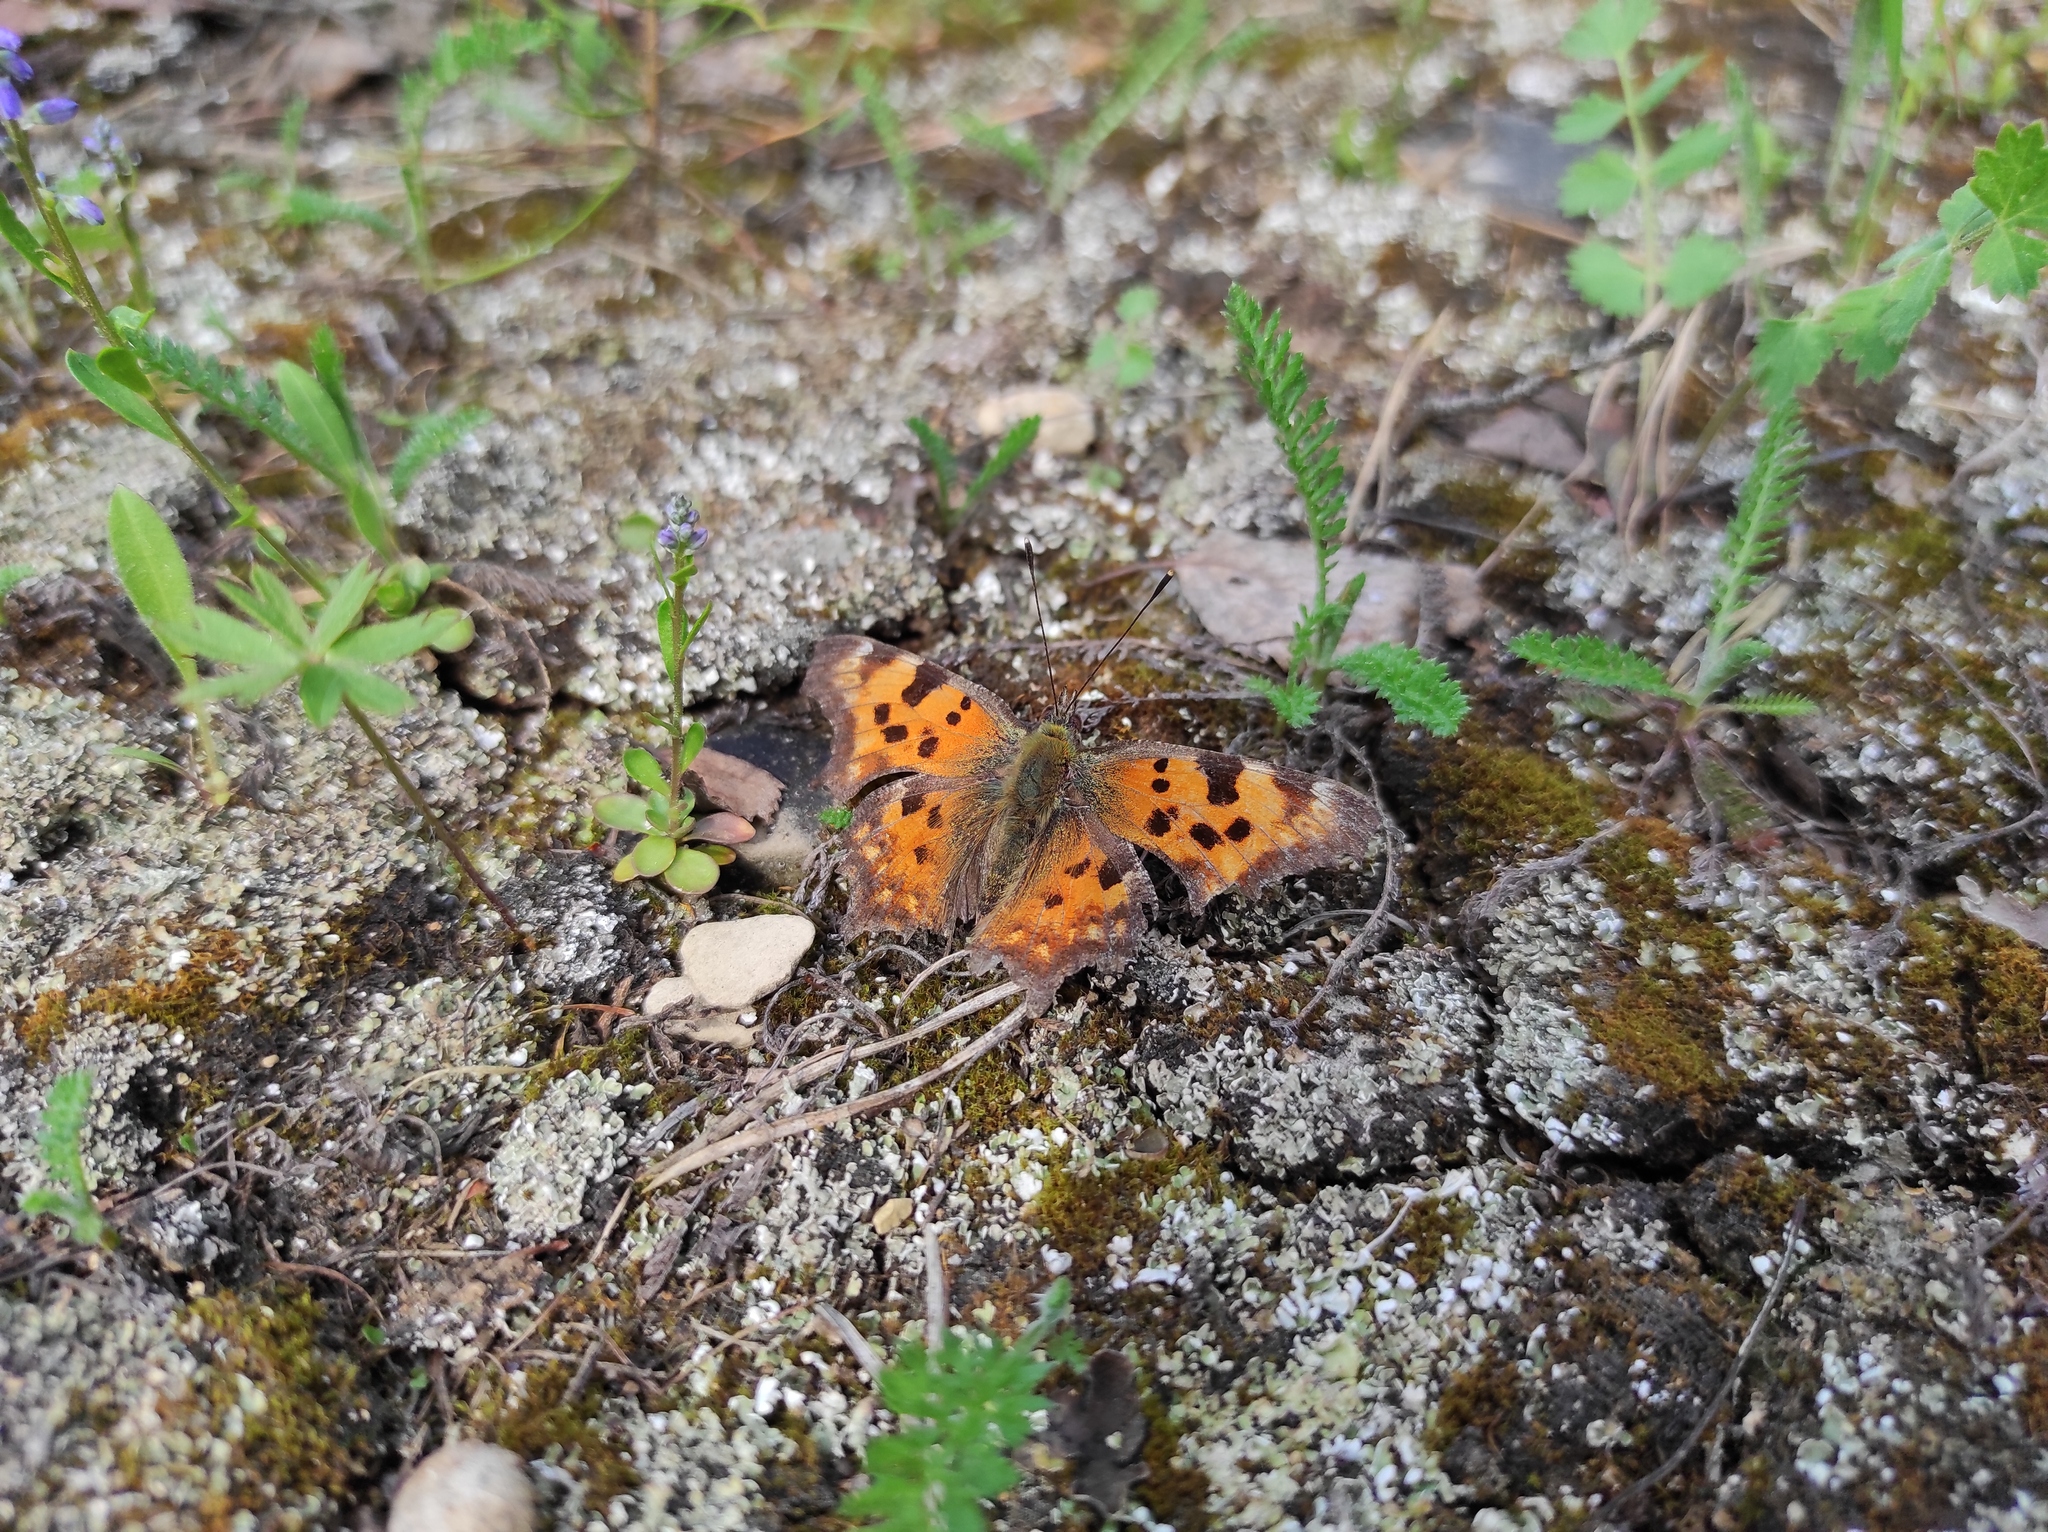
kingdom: Plantae
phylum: Tracheophyta
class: Magnoliopsida
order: Fabales
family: Polygalaceae
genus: Polygala
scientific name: Polygala amarella
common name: Dwarf milkwort
